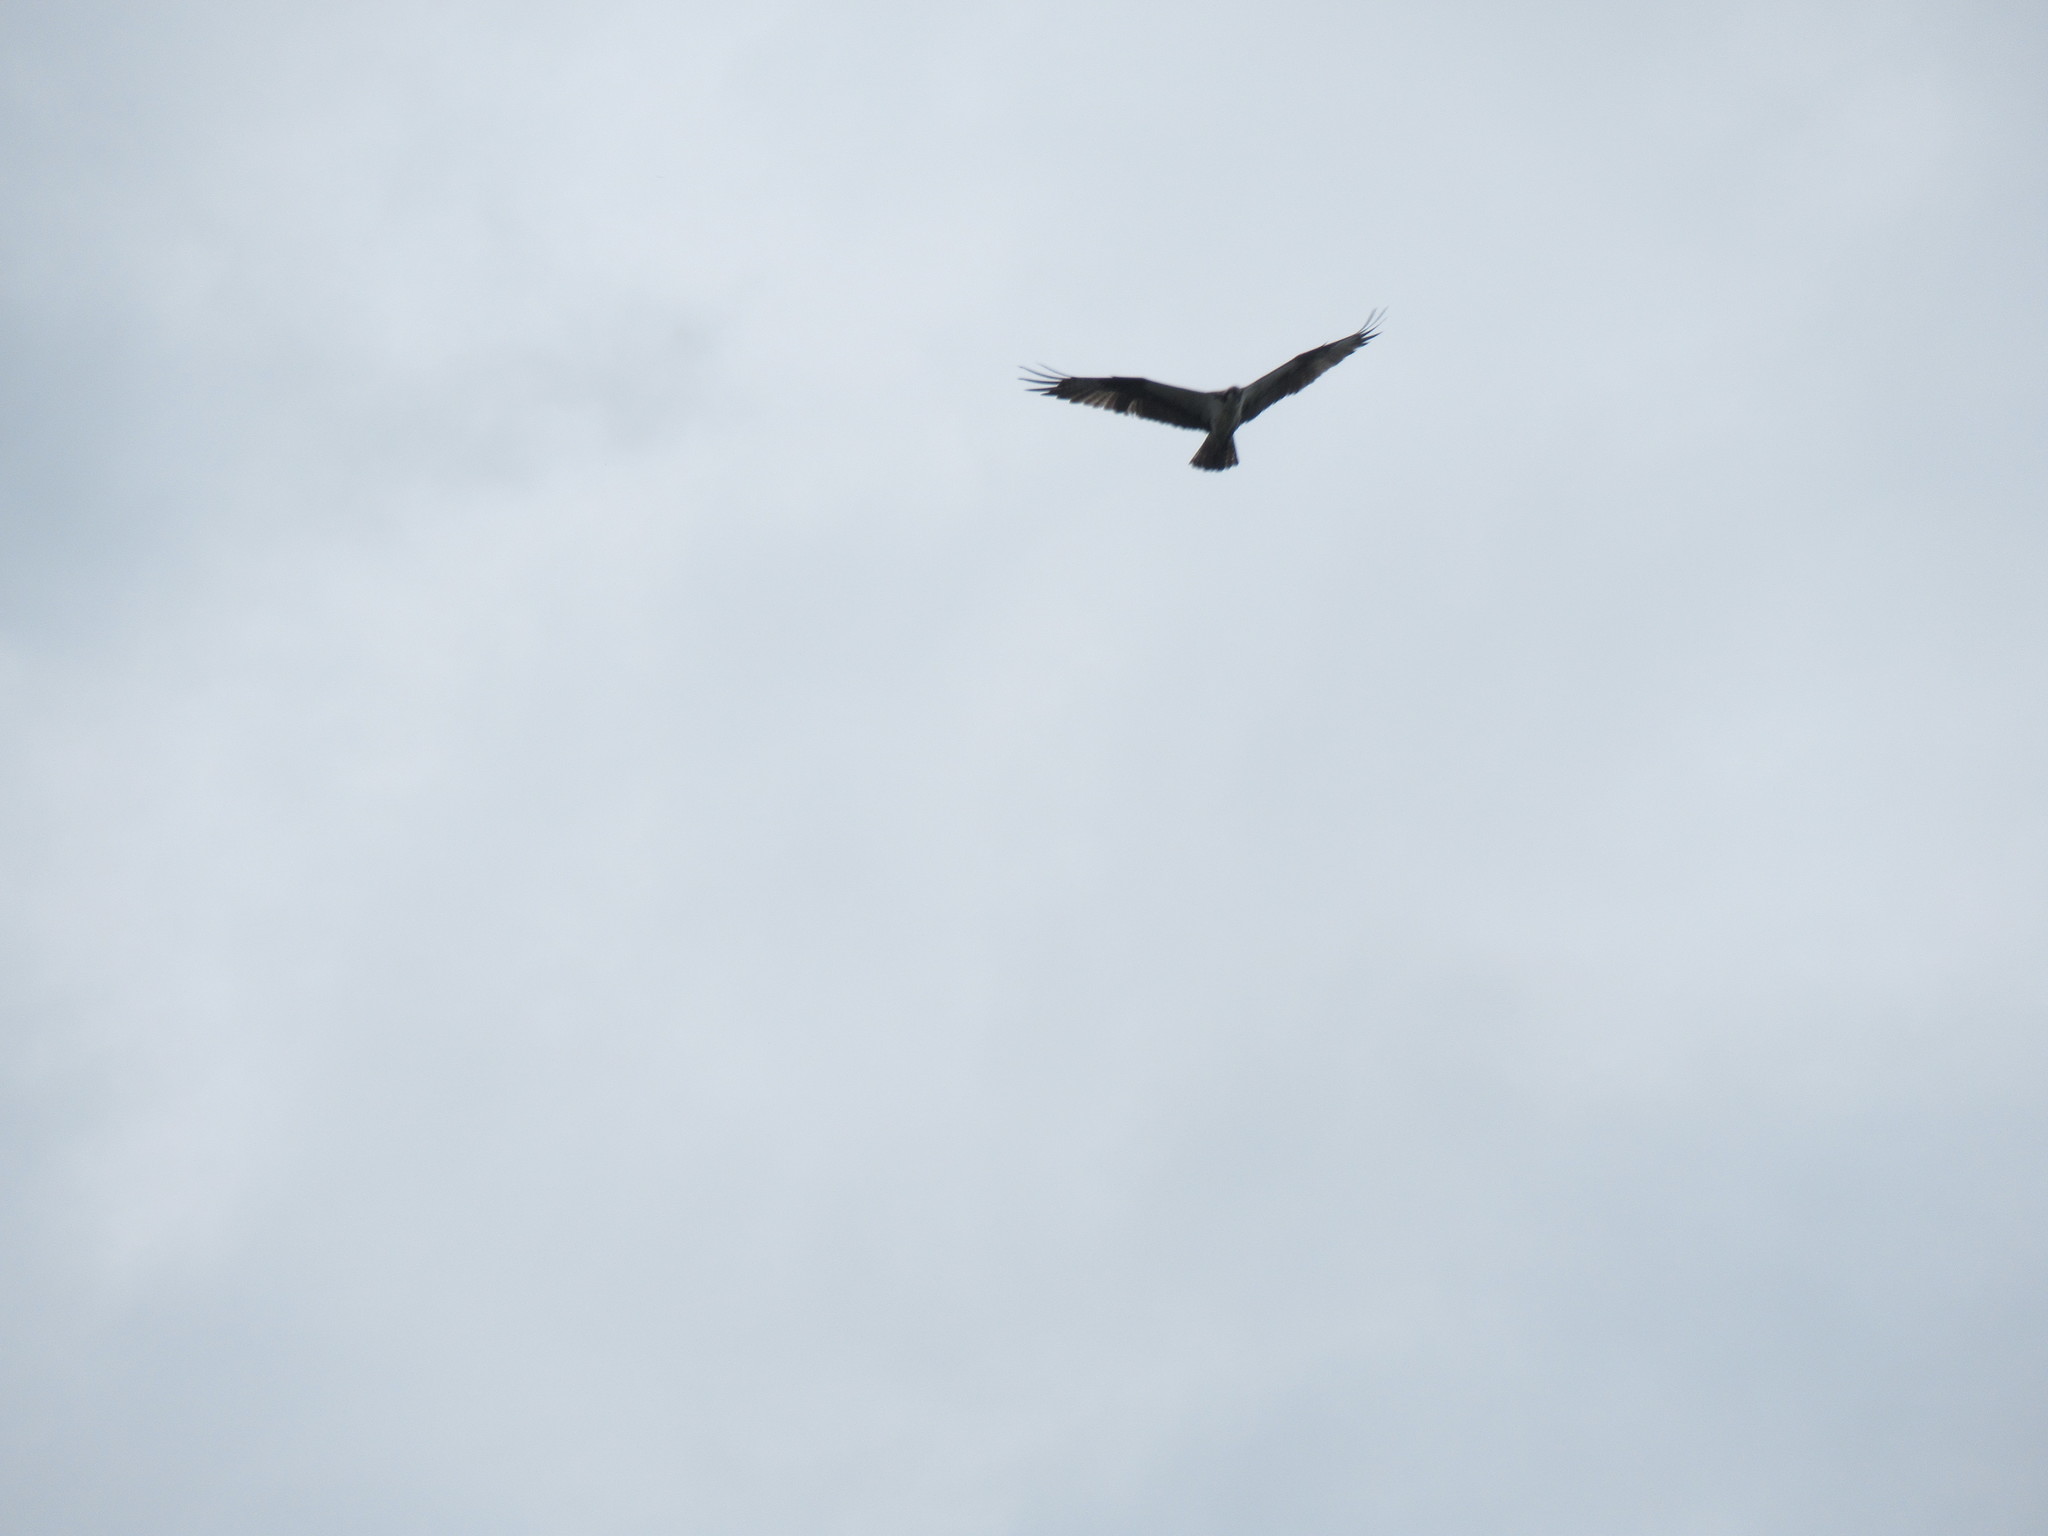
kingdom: Animalia
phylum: Chordata
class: Aves
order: Accipitriformes
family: Pandionidae
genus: Pandion
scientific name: Pandion haliaetus
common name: Osprey
